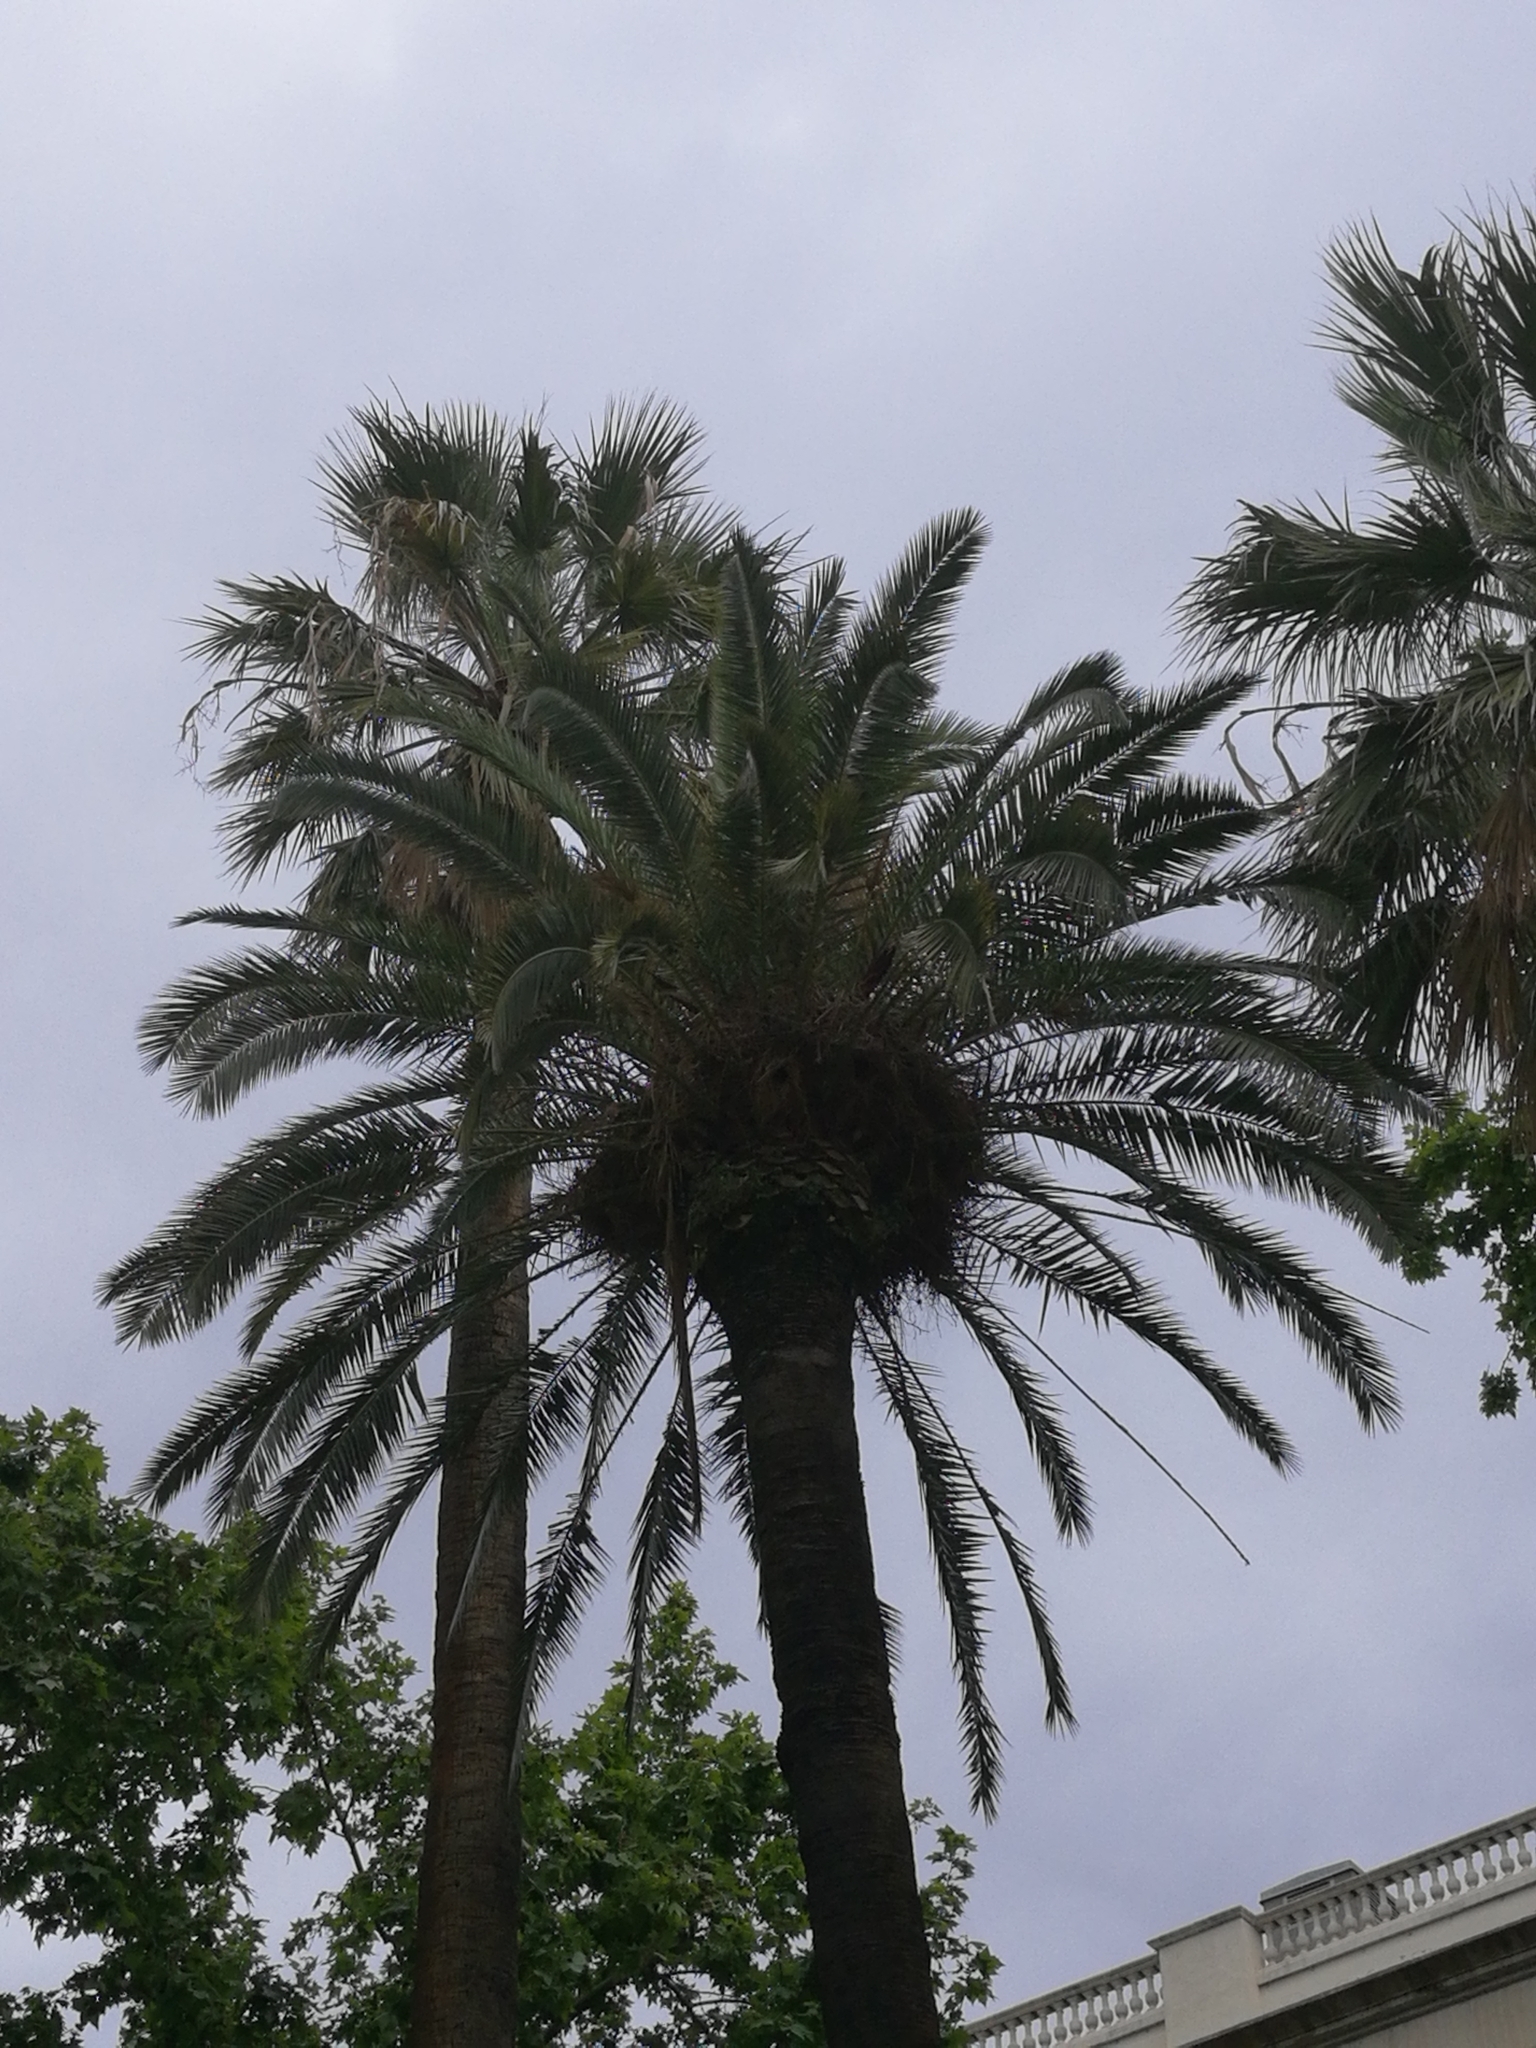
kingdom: Animalia
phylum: Chordata
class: Aves
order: Psittaciformes
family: Psittacidae
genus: Myiopsitta
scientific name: Myiopsitta monachus
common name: Monk parakeet
